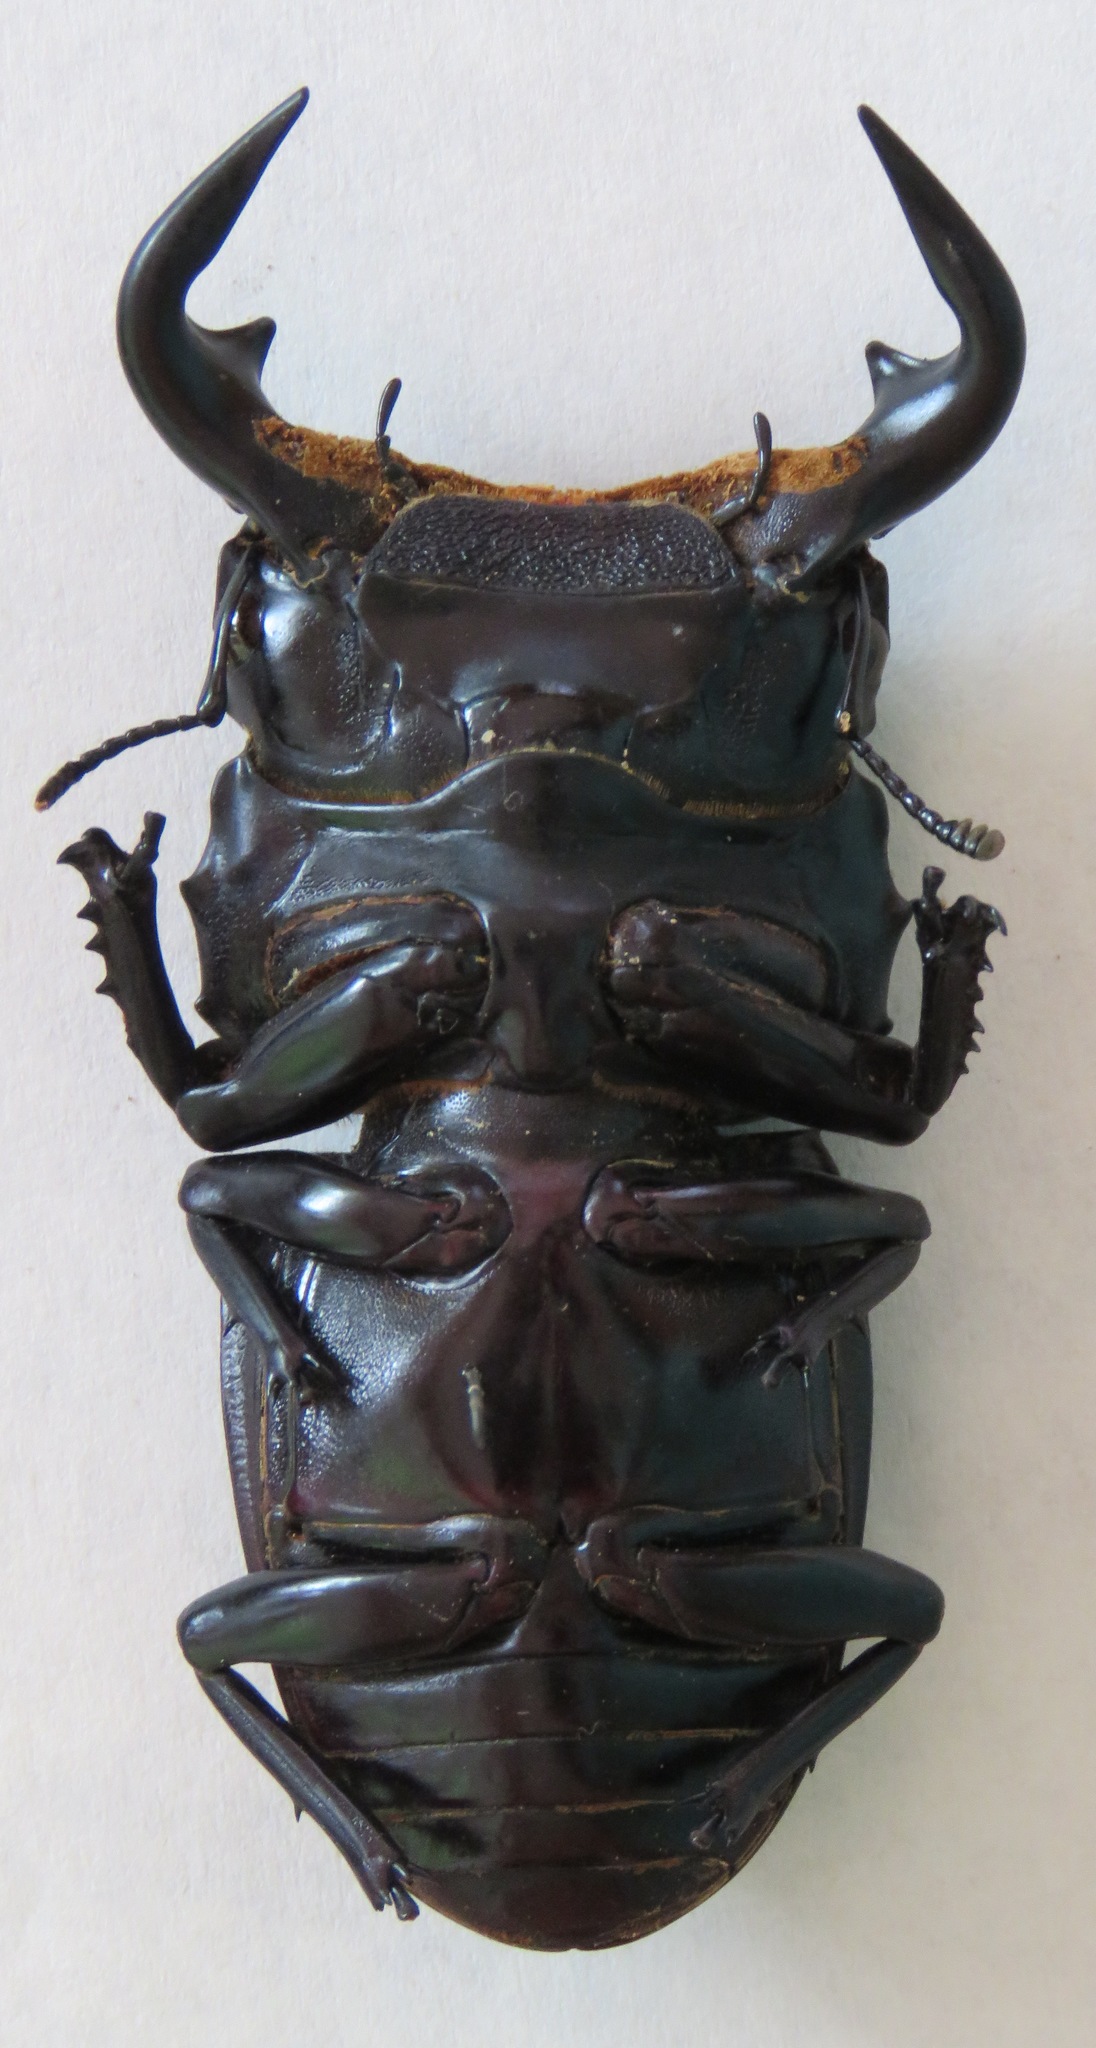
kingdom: Animalia
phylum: Arthropoda
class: Insecta
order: Coleoptera
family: Lucanidae
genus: Dorcus
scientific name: Dorcus antaeus
